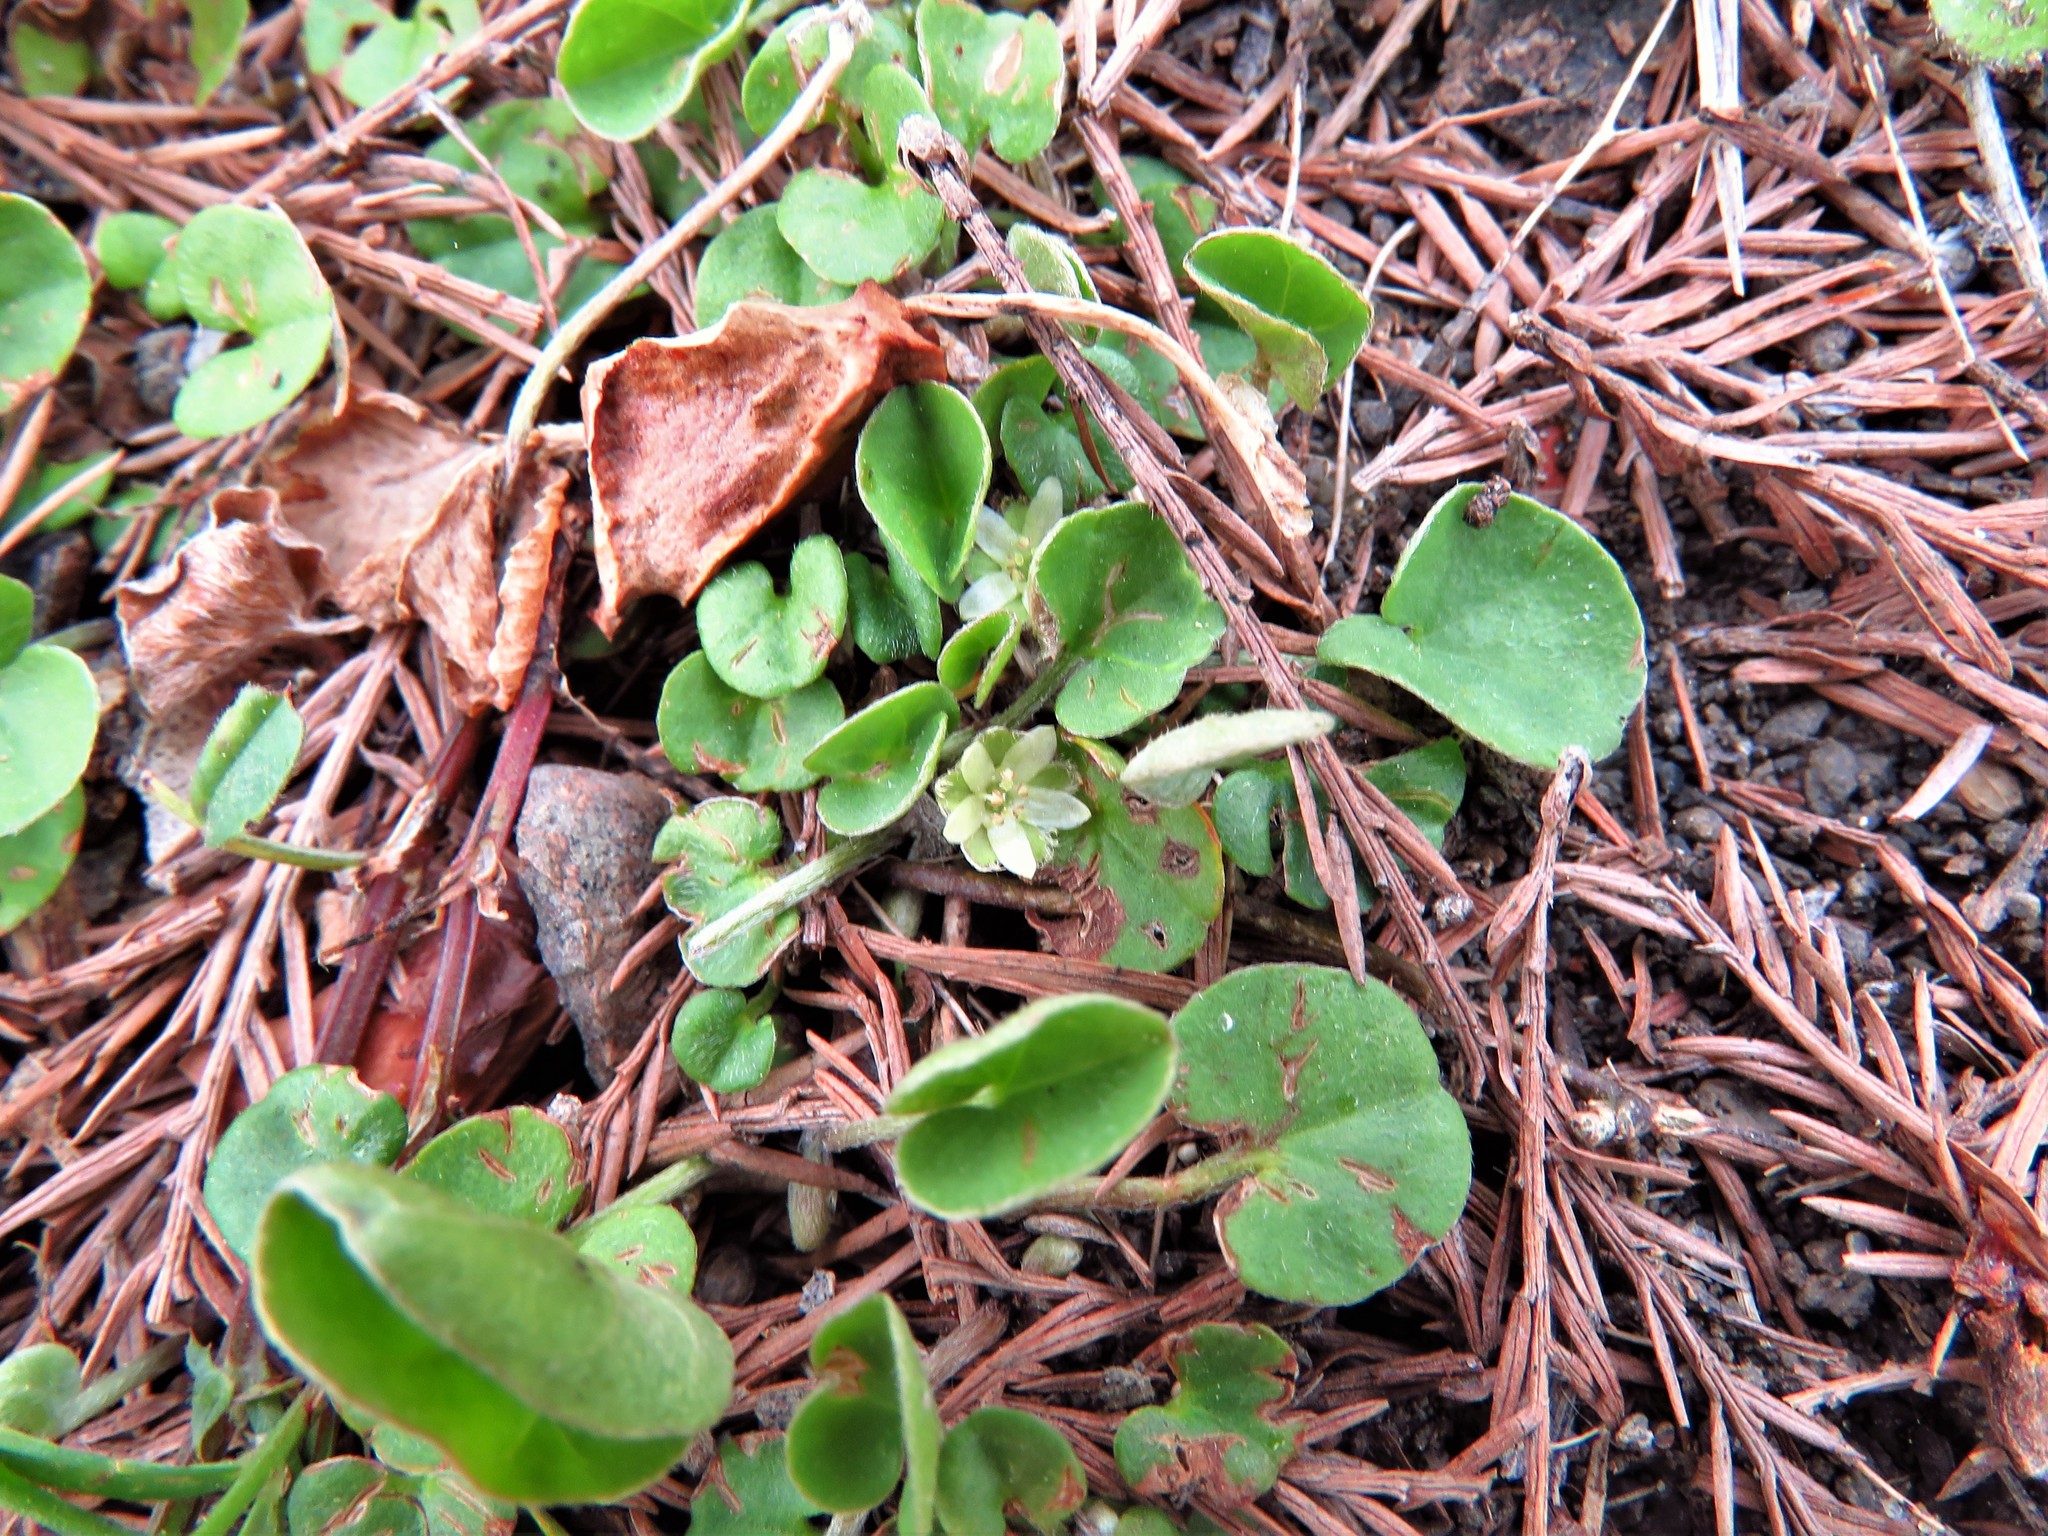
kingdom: Plantae
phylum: Tracheophyta
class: Magnoliopsida
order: Solanales
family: Convolvulaceae
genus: Dichondra
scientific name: Dichondra carolinensis
